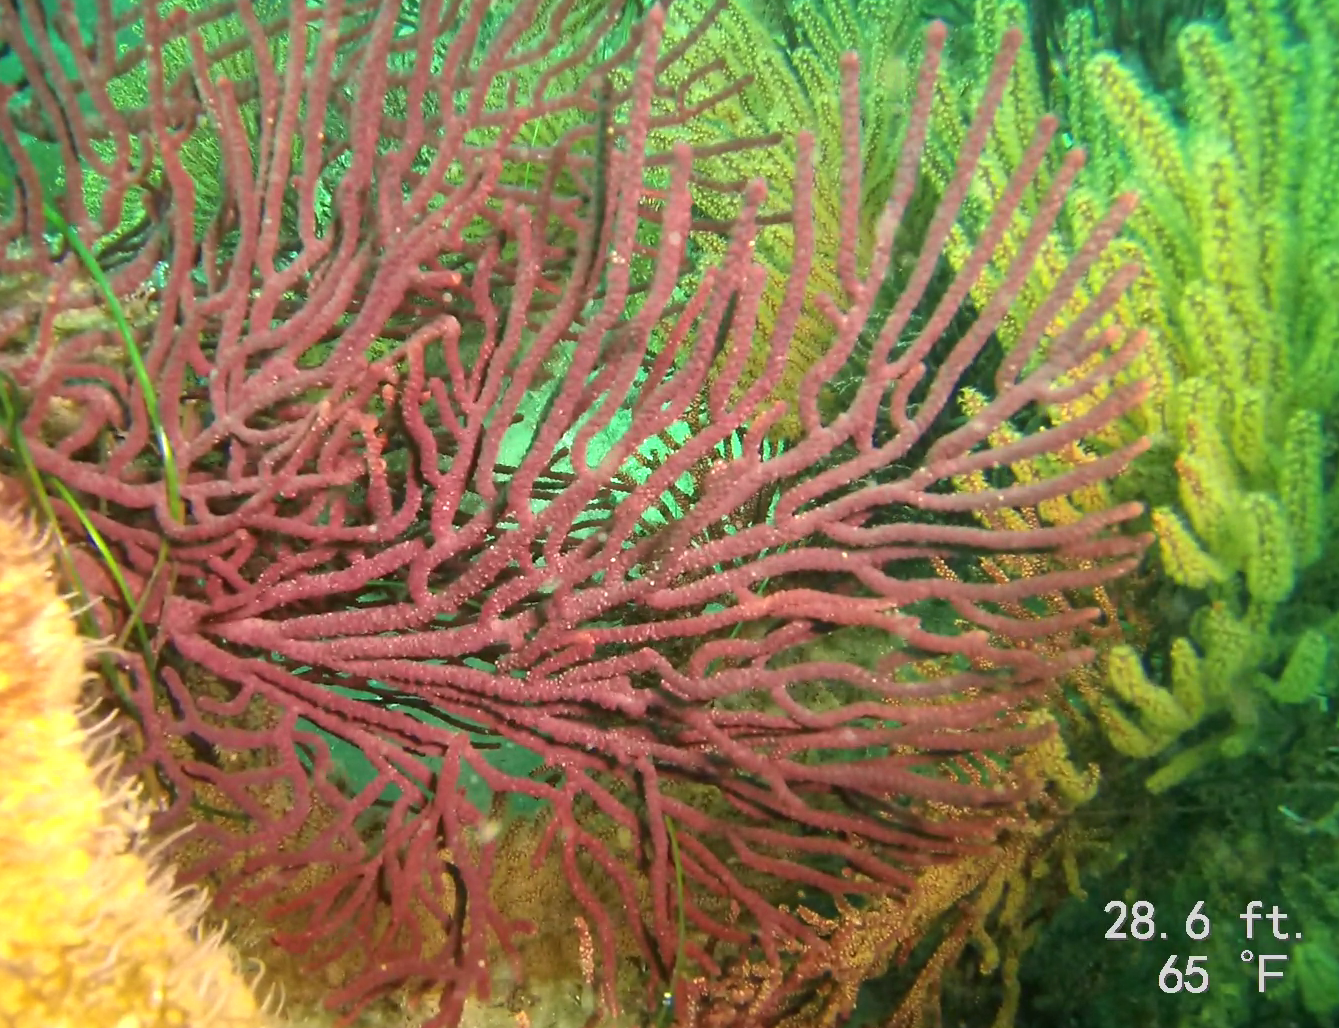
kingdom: Animalia
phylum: Cnidaria
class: Anthozoa
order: Malacalcyonacea
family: Plexauridae
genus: Muricea
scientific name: Muricea fruticosa
